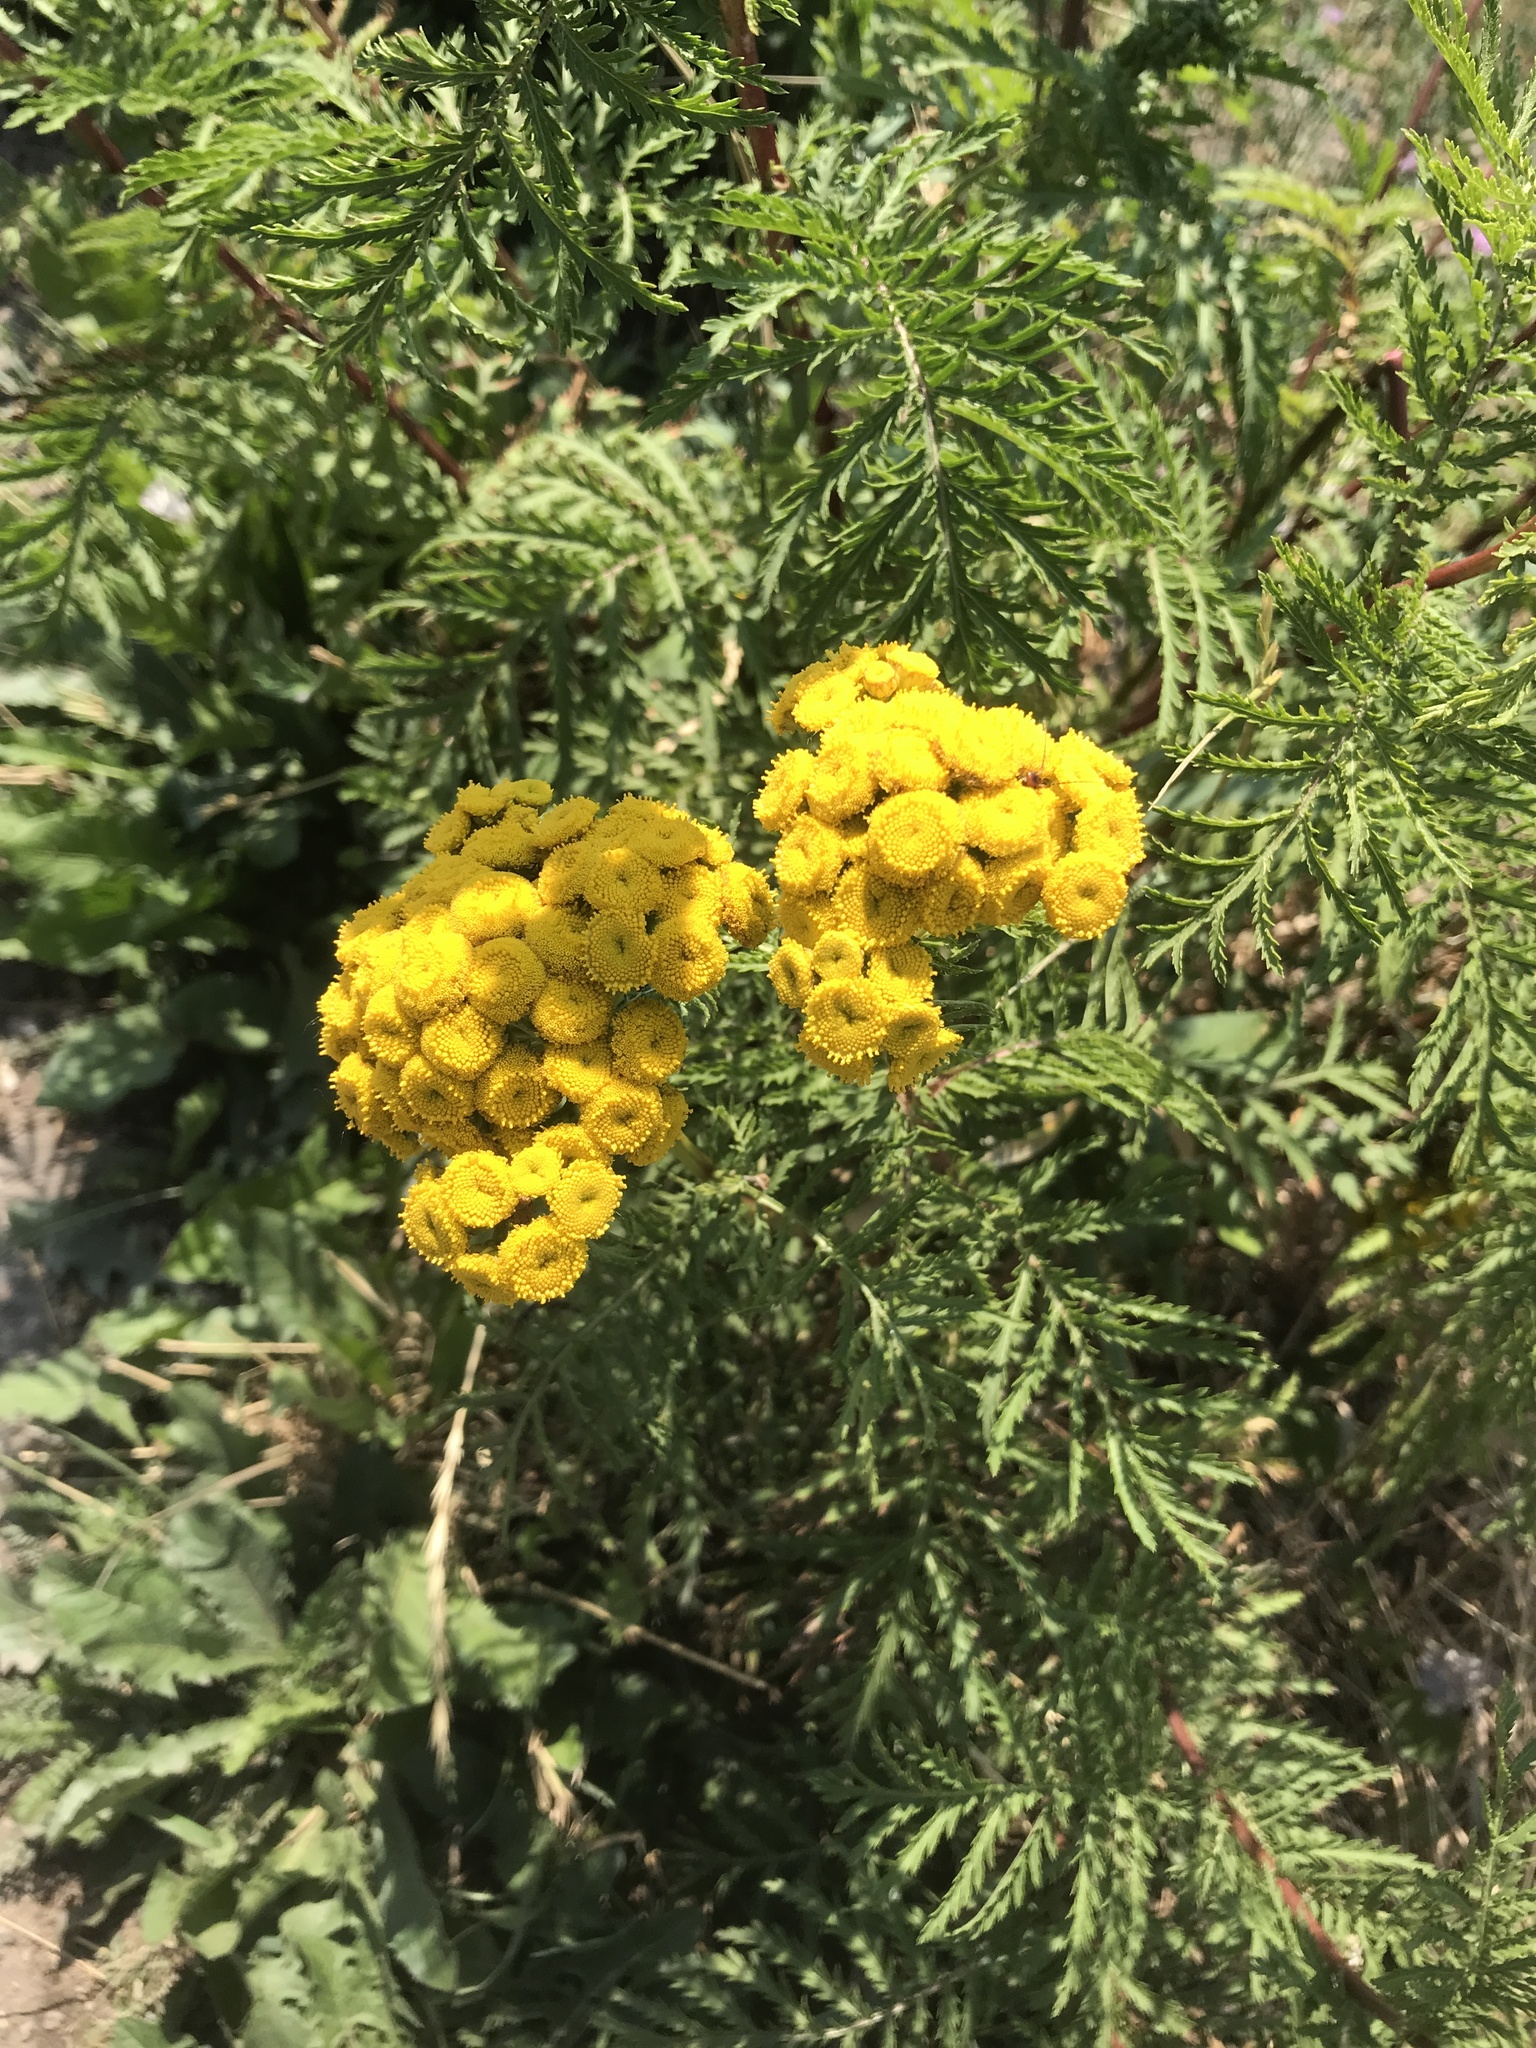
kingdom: Plantae
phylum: Tracheophyta
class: Magnoliopsida
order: Asterales
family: Asteraceae
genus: Tanacetum
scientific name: Tanacetum vulgare
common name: Common tansy
